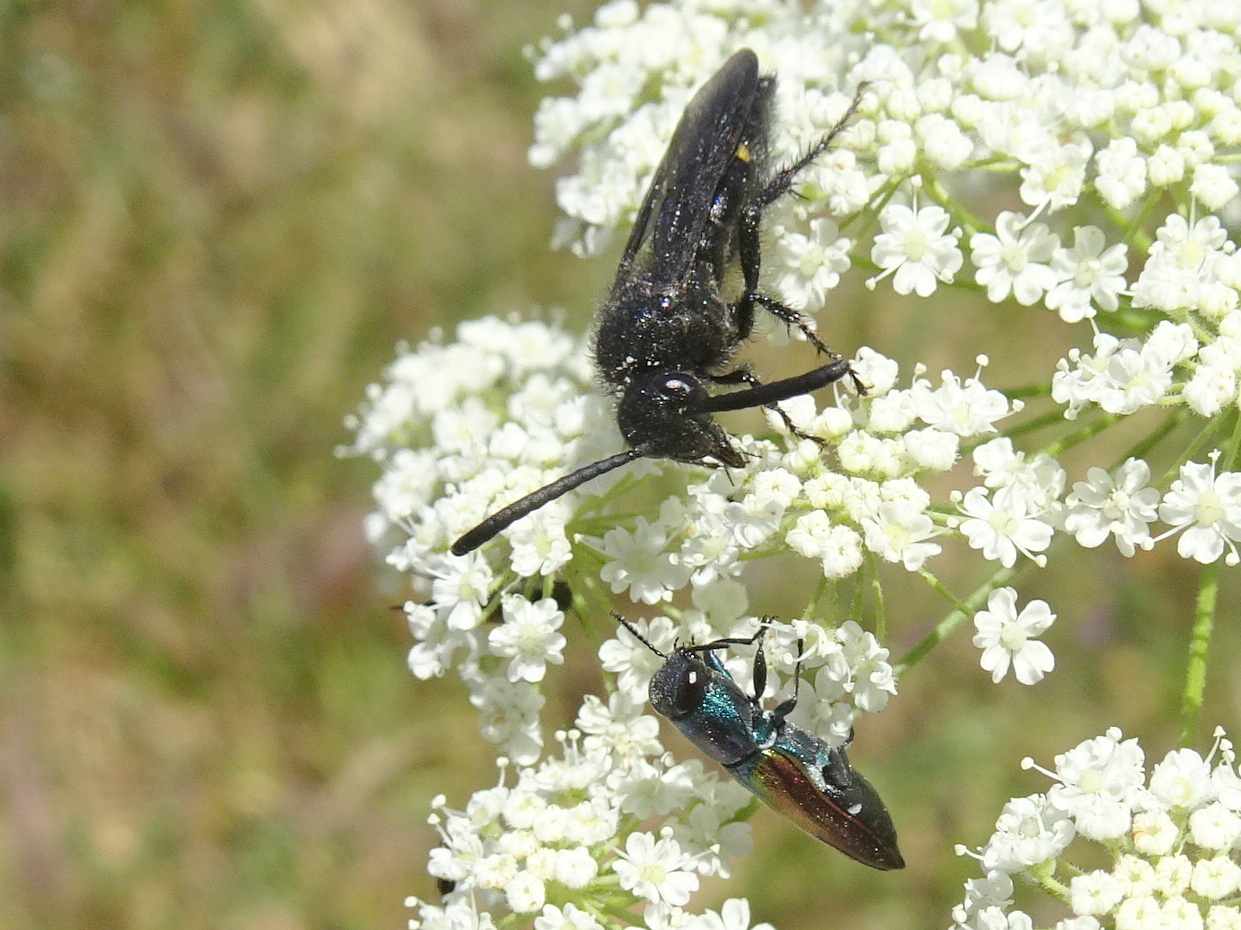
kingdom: Animalia
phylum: Arthropoda
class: Insecta
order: Coleoptera
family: Buprestidae
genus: Anthaxia
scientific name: Anthaxia ignipennis
